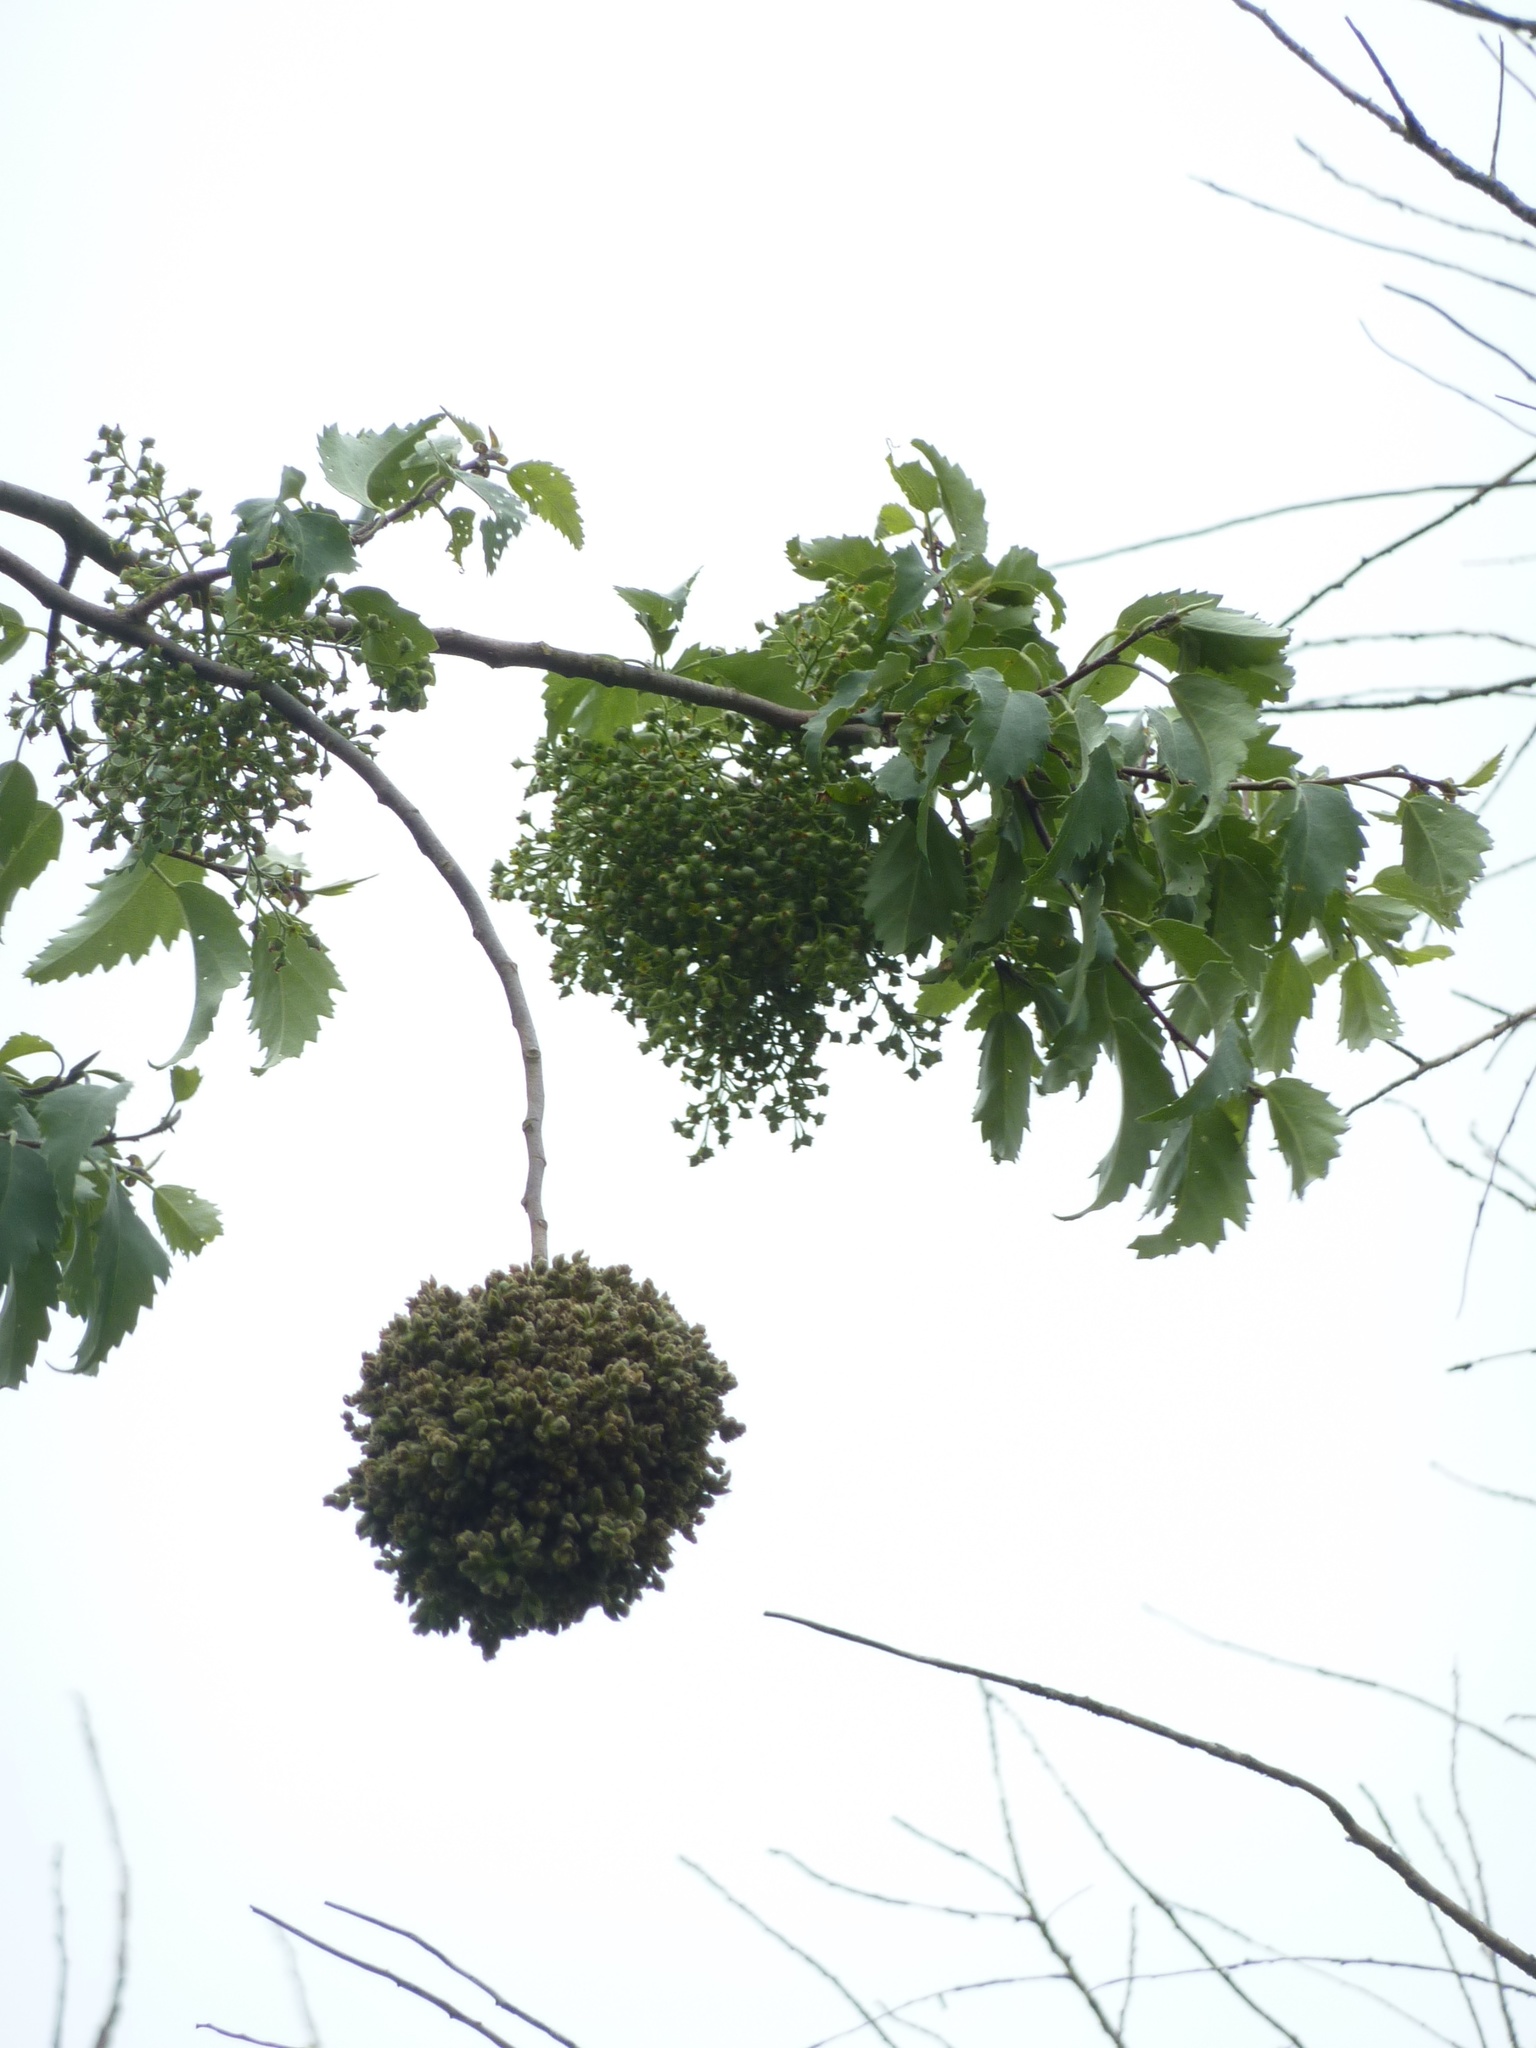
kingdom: Plantae
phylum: Tracheophyta
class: Magnoliopsida
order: Malvales
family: Malvaceae
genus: Plagianthus
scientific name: Plagianthus regius
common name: Manatu
